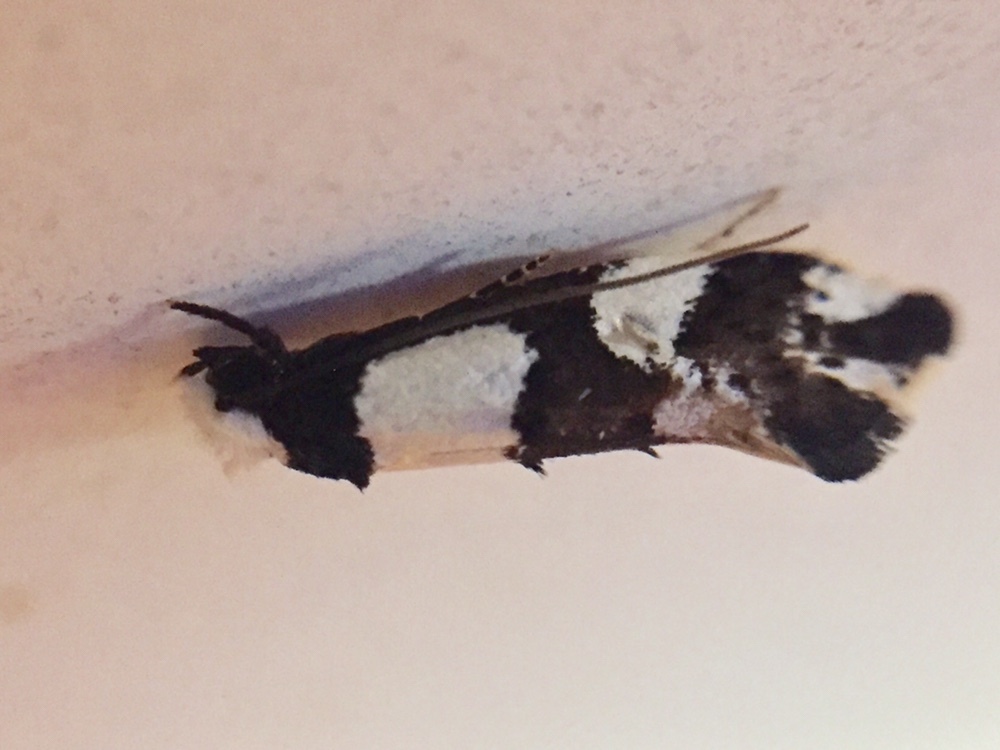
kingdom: Animalia
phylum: Arthropoda
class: Insecta
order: Lepidoptera
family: Tineidae
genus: Monopis
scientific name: Monopis icterogastra
